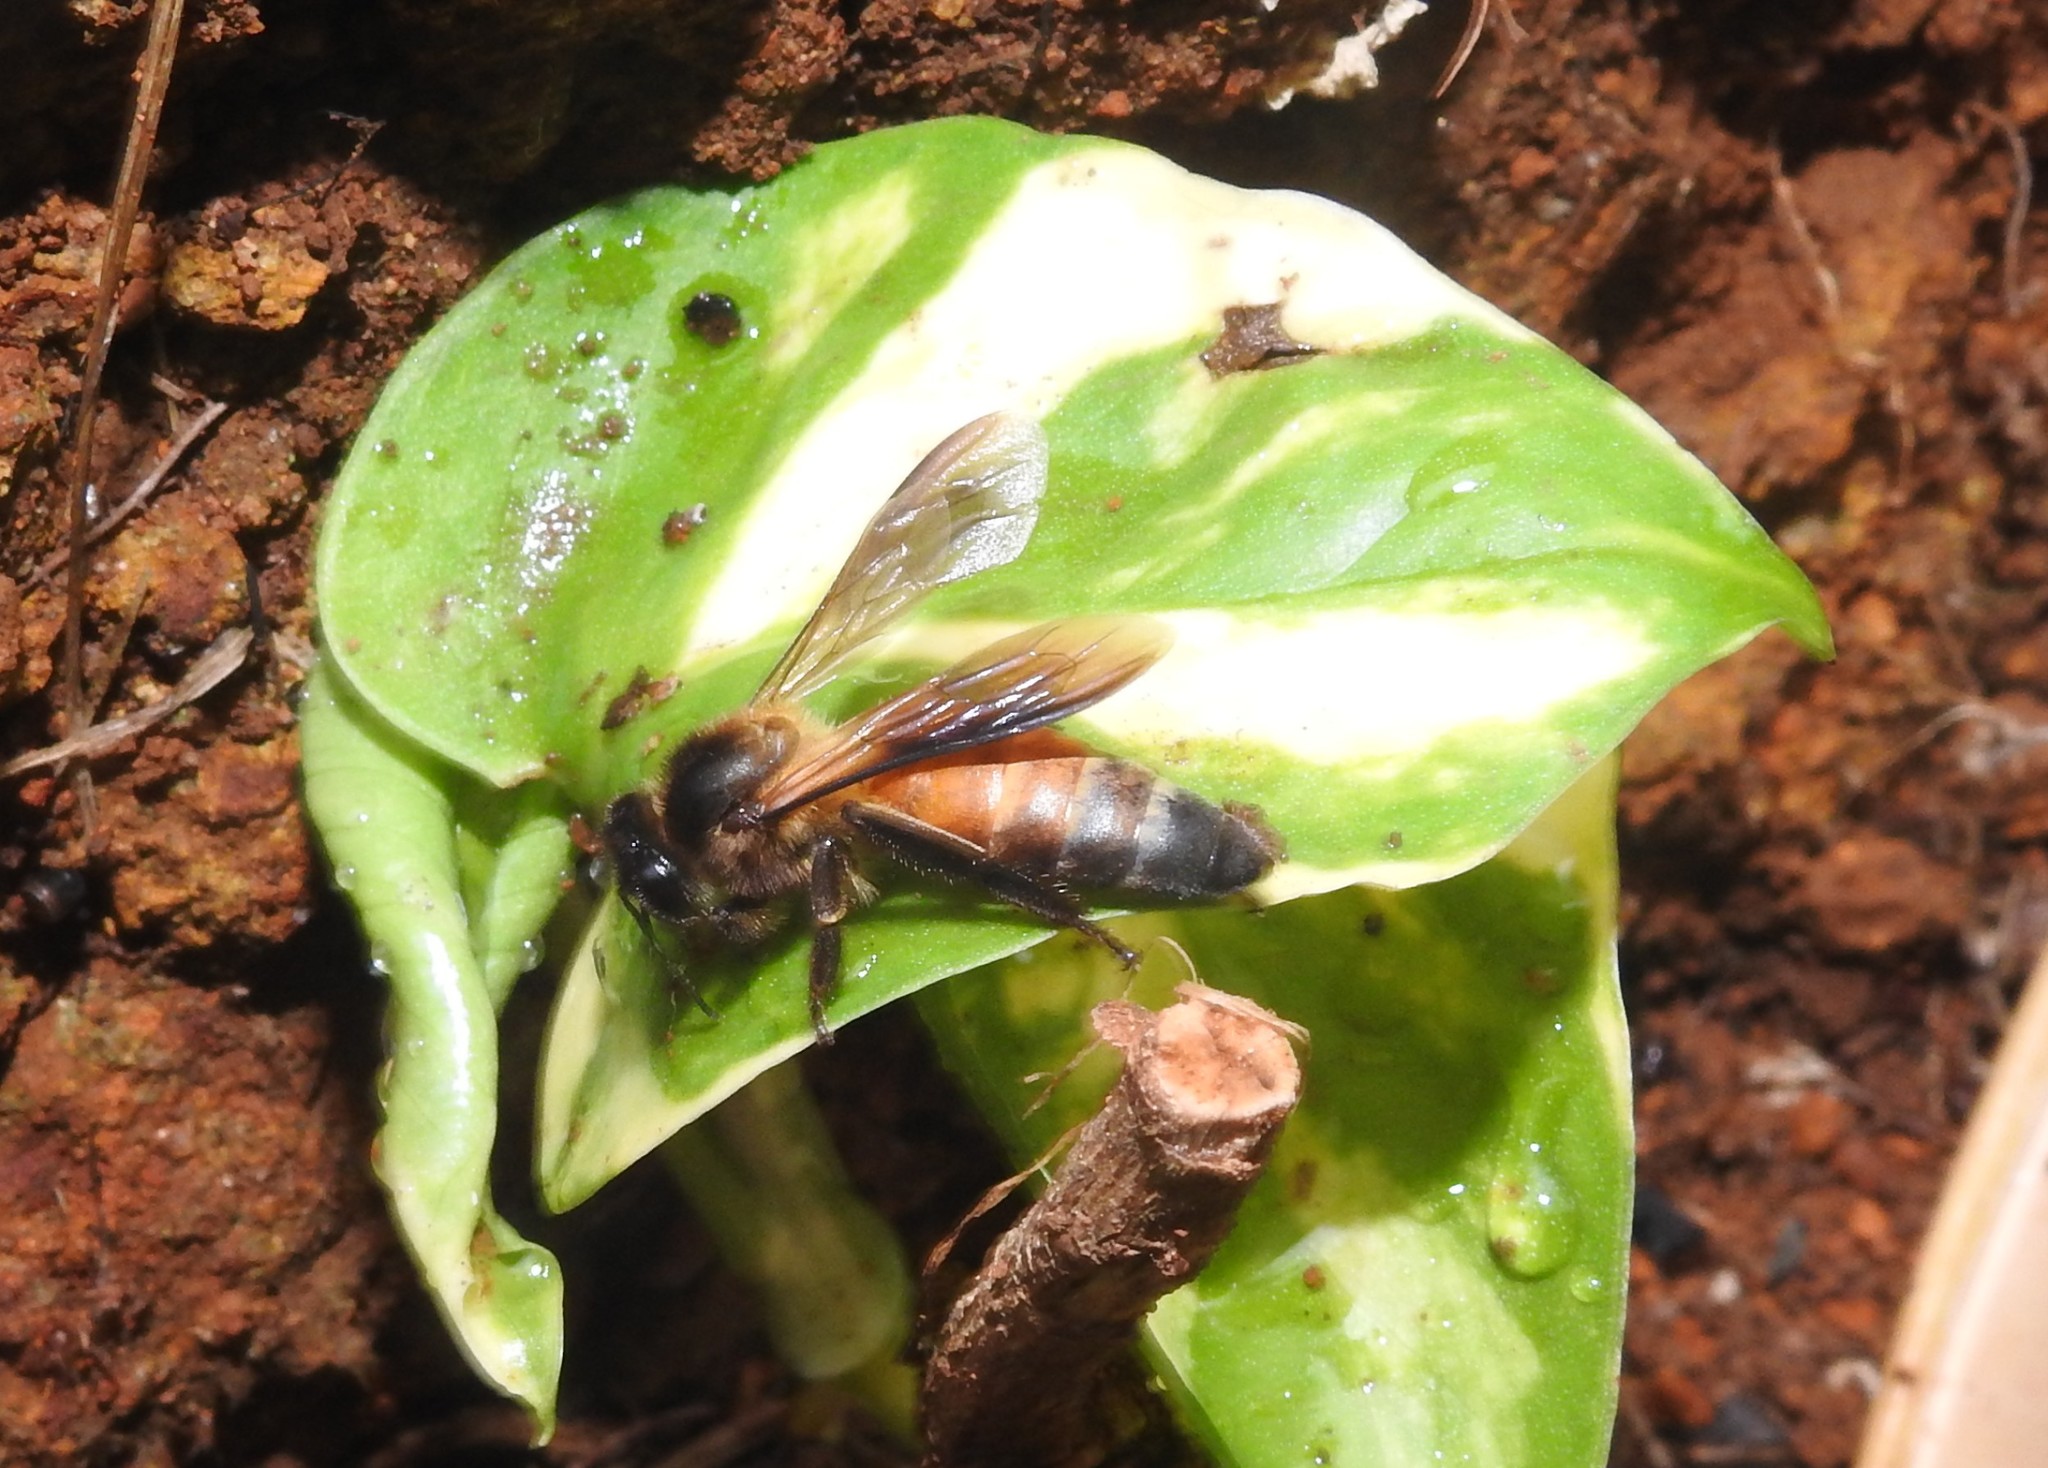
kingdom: Animalia
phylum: Arthropoda
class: Insecta
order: Hymenoptera
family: Apidae
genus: Apis
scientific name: Apis dorsata
